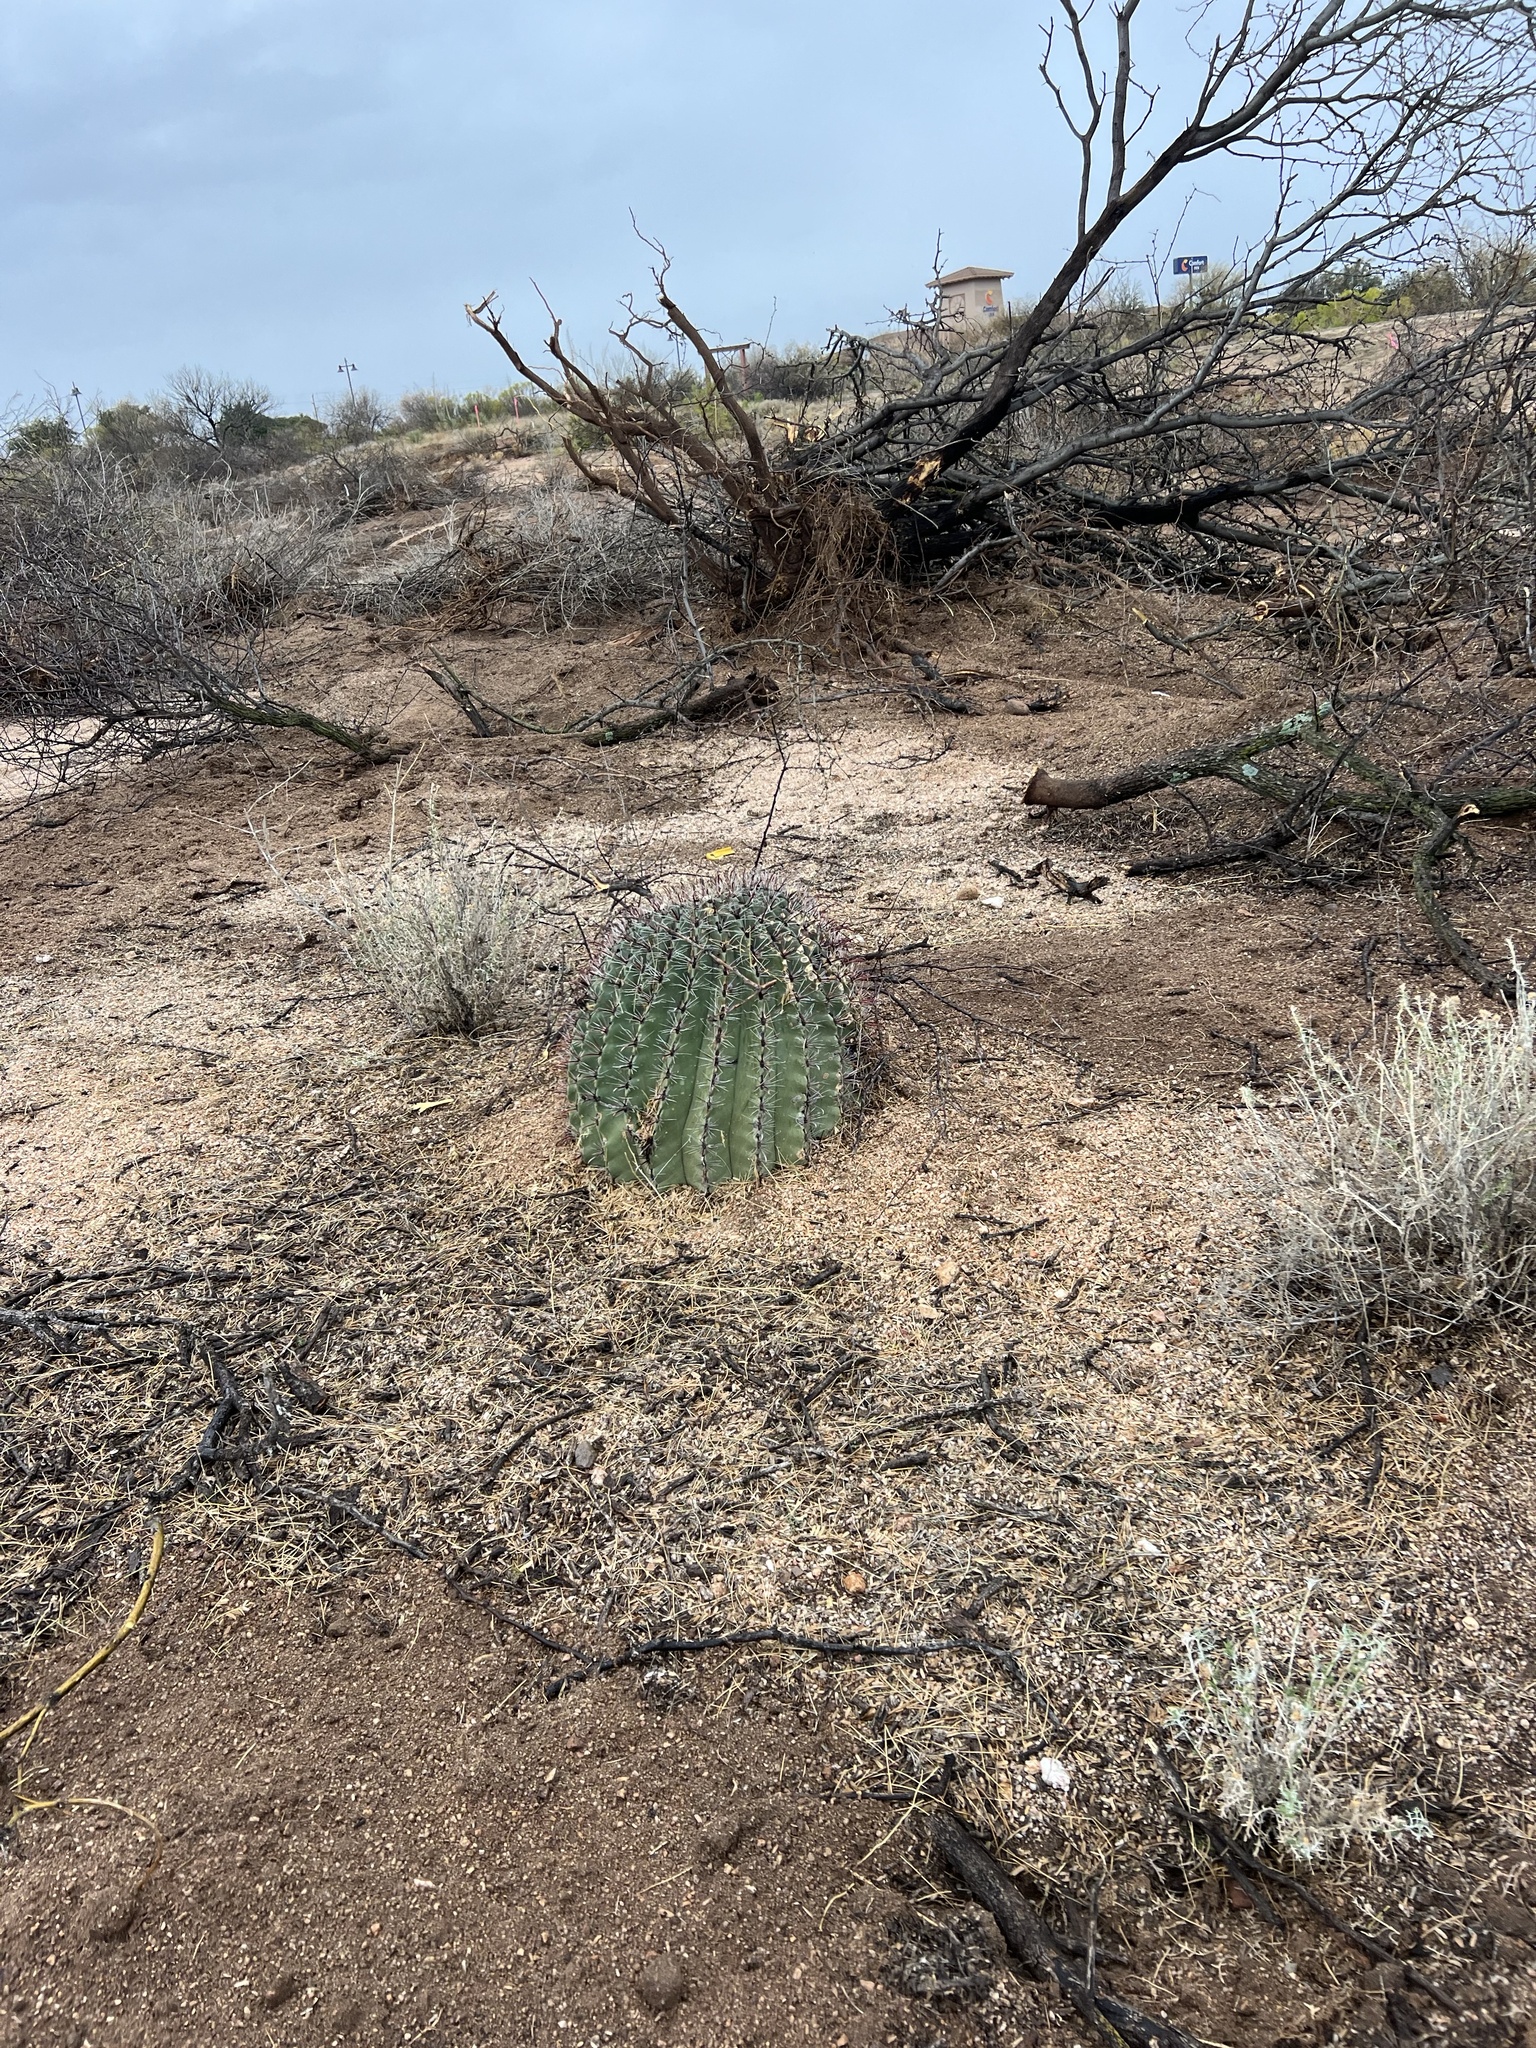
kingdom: Plantae
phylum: Tracheophyta
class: Magnoliopsida
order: Caryophyllales
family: Cactaceae
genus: Ferocactus
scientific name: Ferocactus wislizeni
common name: Candy barrel cactus
